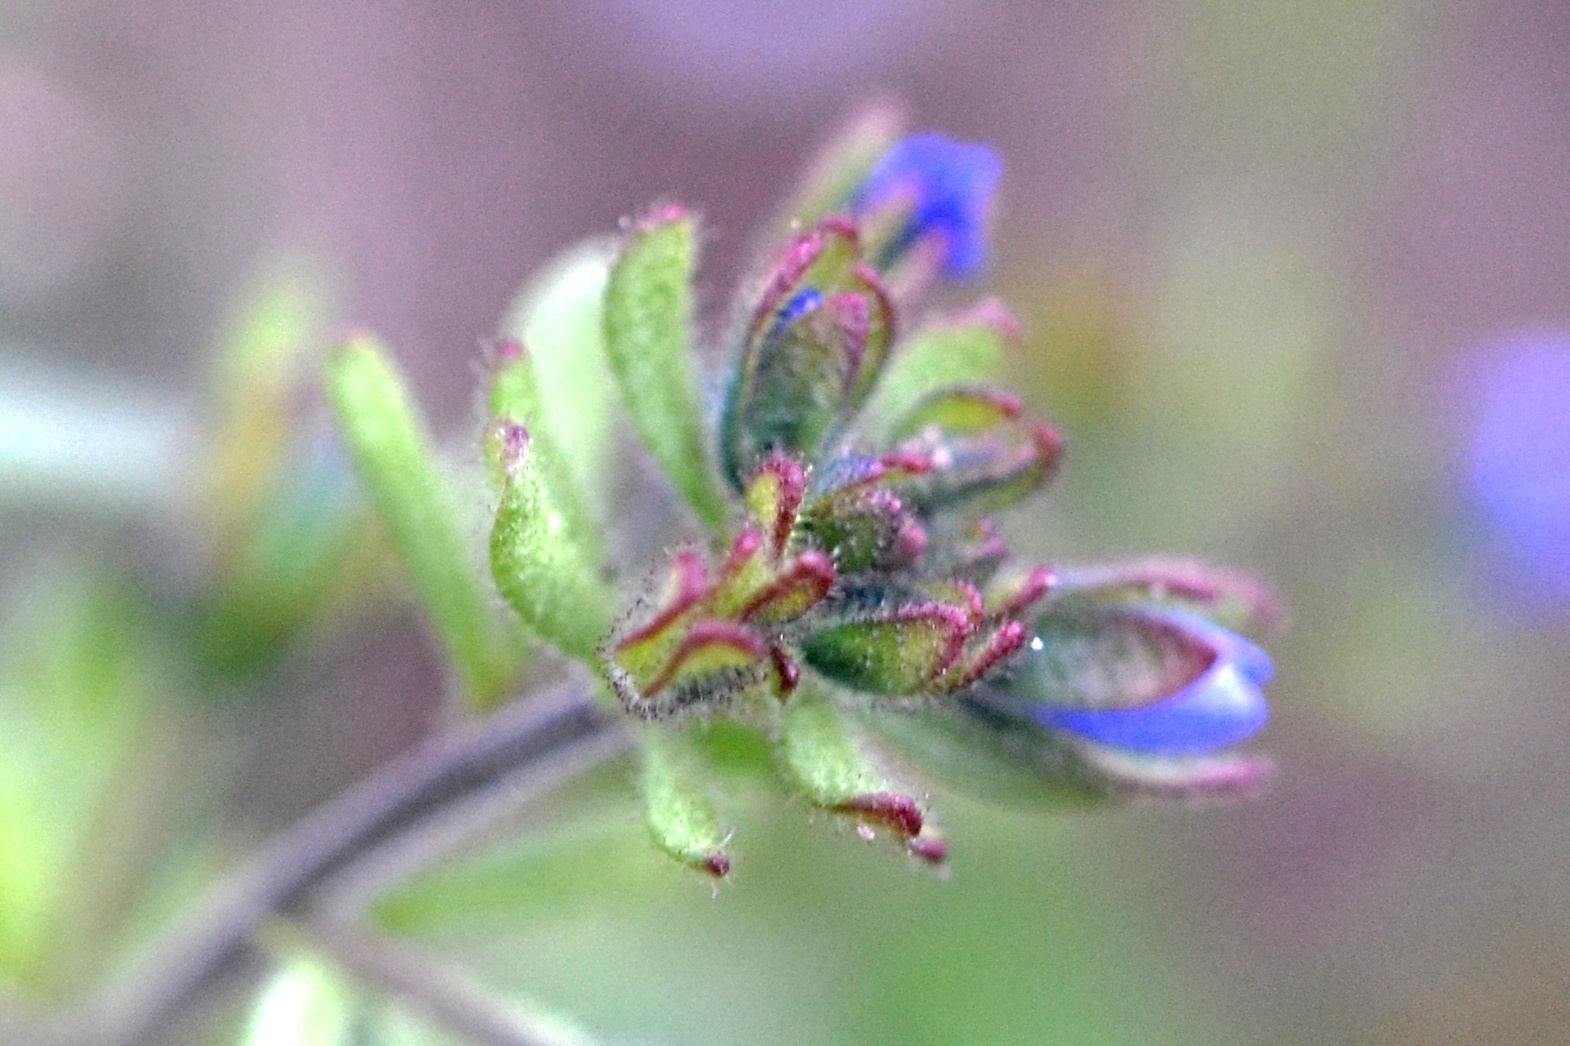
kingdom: Plantae
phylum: Tracheophyta
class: Magnoliopsida
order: Lamiales
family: Plantaginaceae
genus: Veronica
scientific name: Veronica triphyllos
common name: Fingered speedwell
